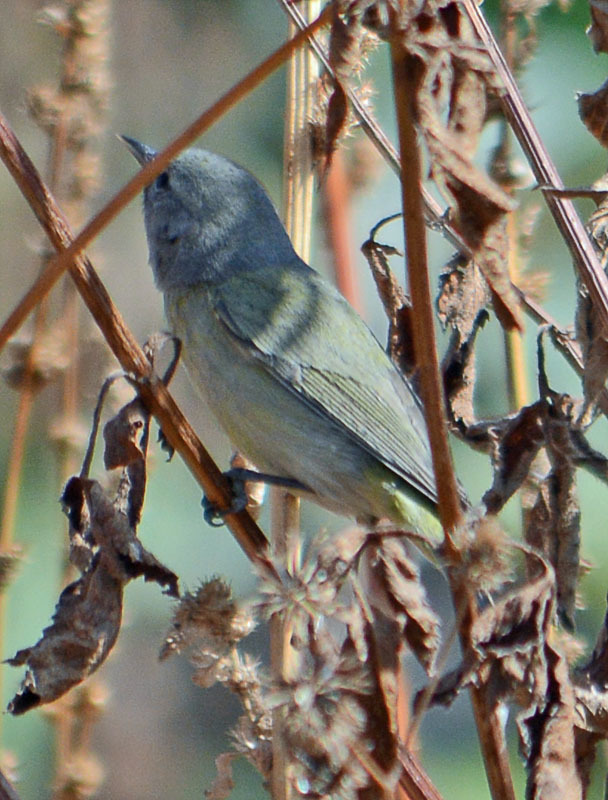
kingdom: Animalia
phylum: Chordata
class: Aves
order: Passeriformes
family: Parulidae
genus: Leiothlypis
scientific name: Leiothlypis celata
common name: Orange-crowned warbler
